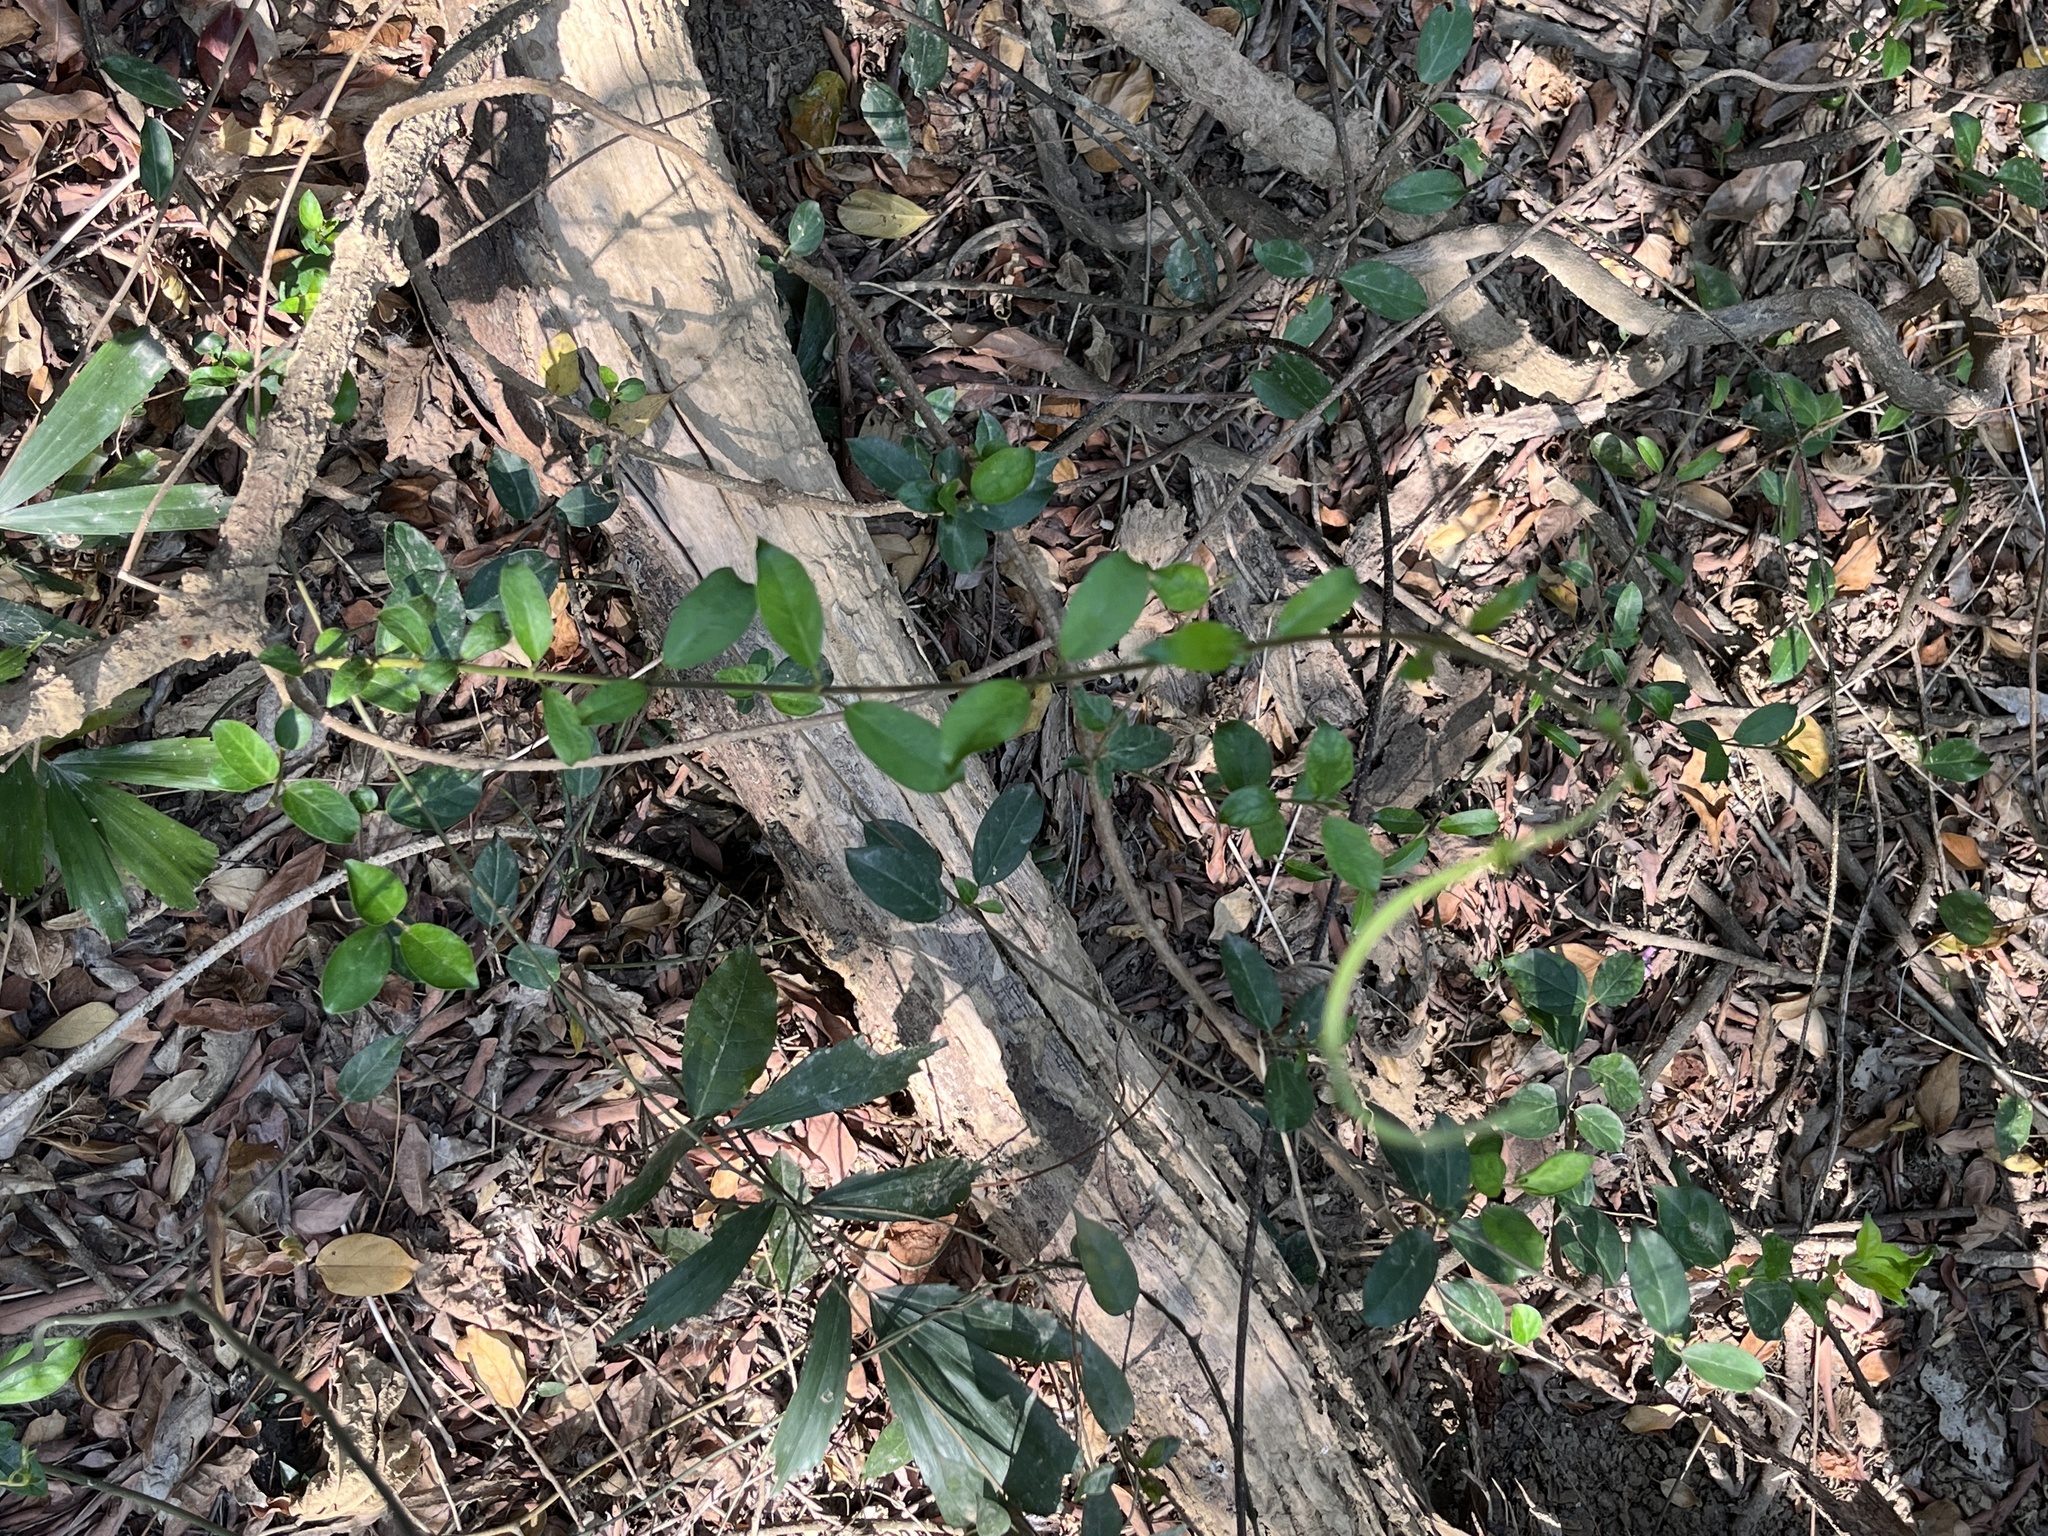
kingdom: Plantae
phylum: Tracheophyta
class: Magnoliopsida
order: Boraginales
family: Ehretiaceae
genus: Ehretia
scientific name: Ehretia microphylla
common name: Fukien-tea
